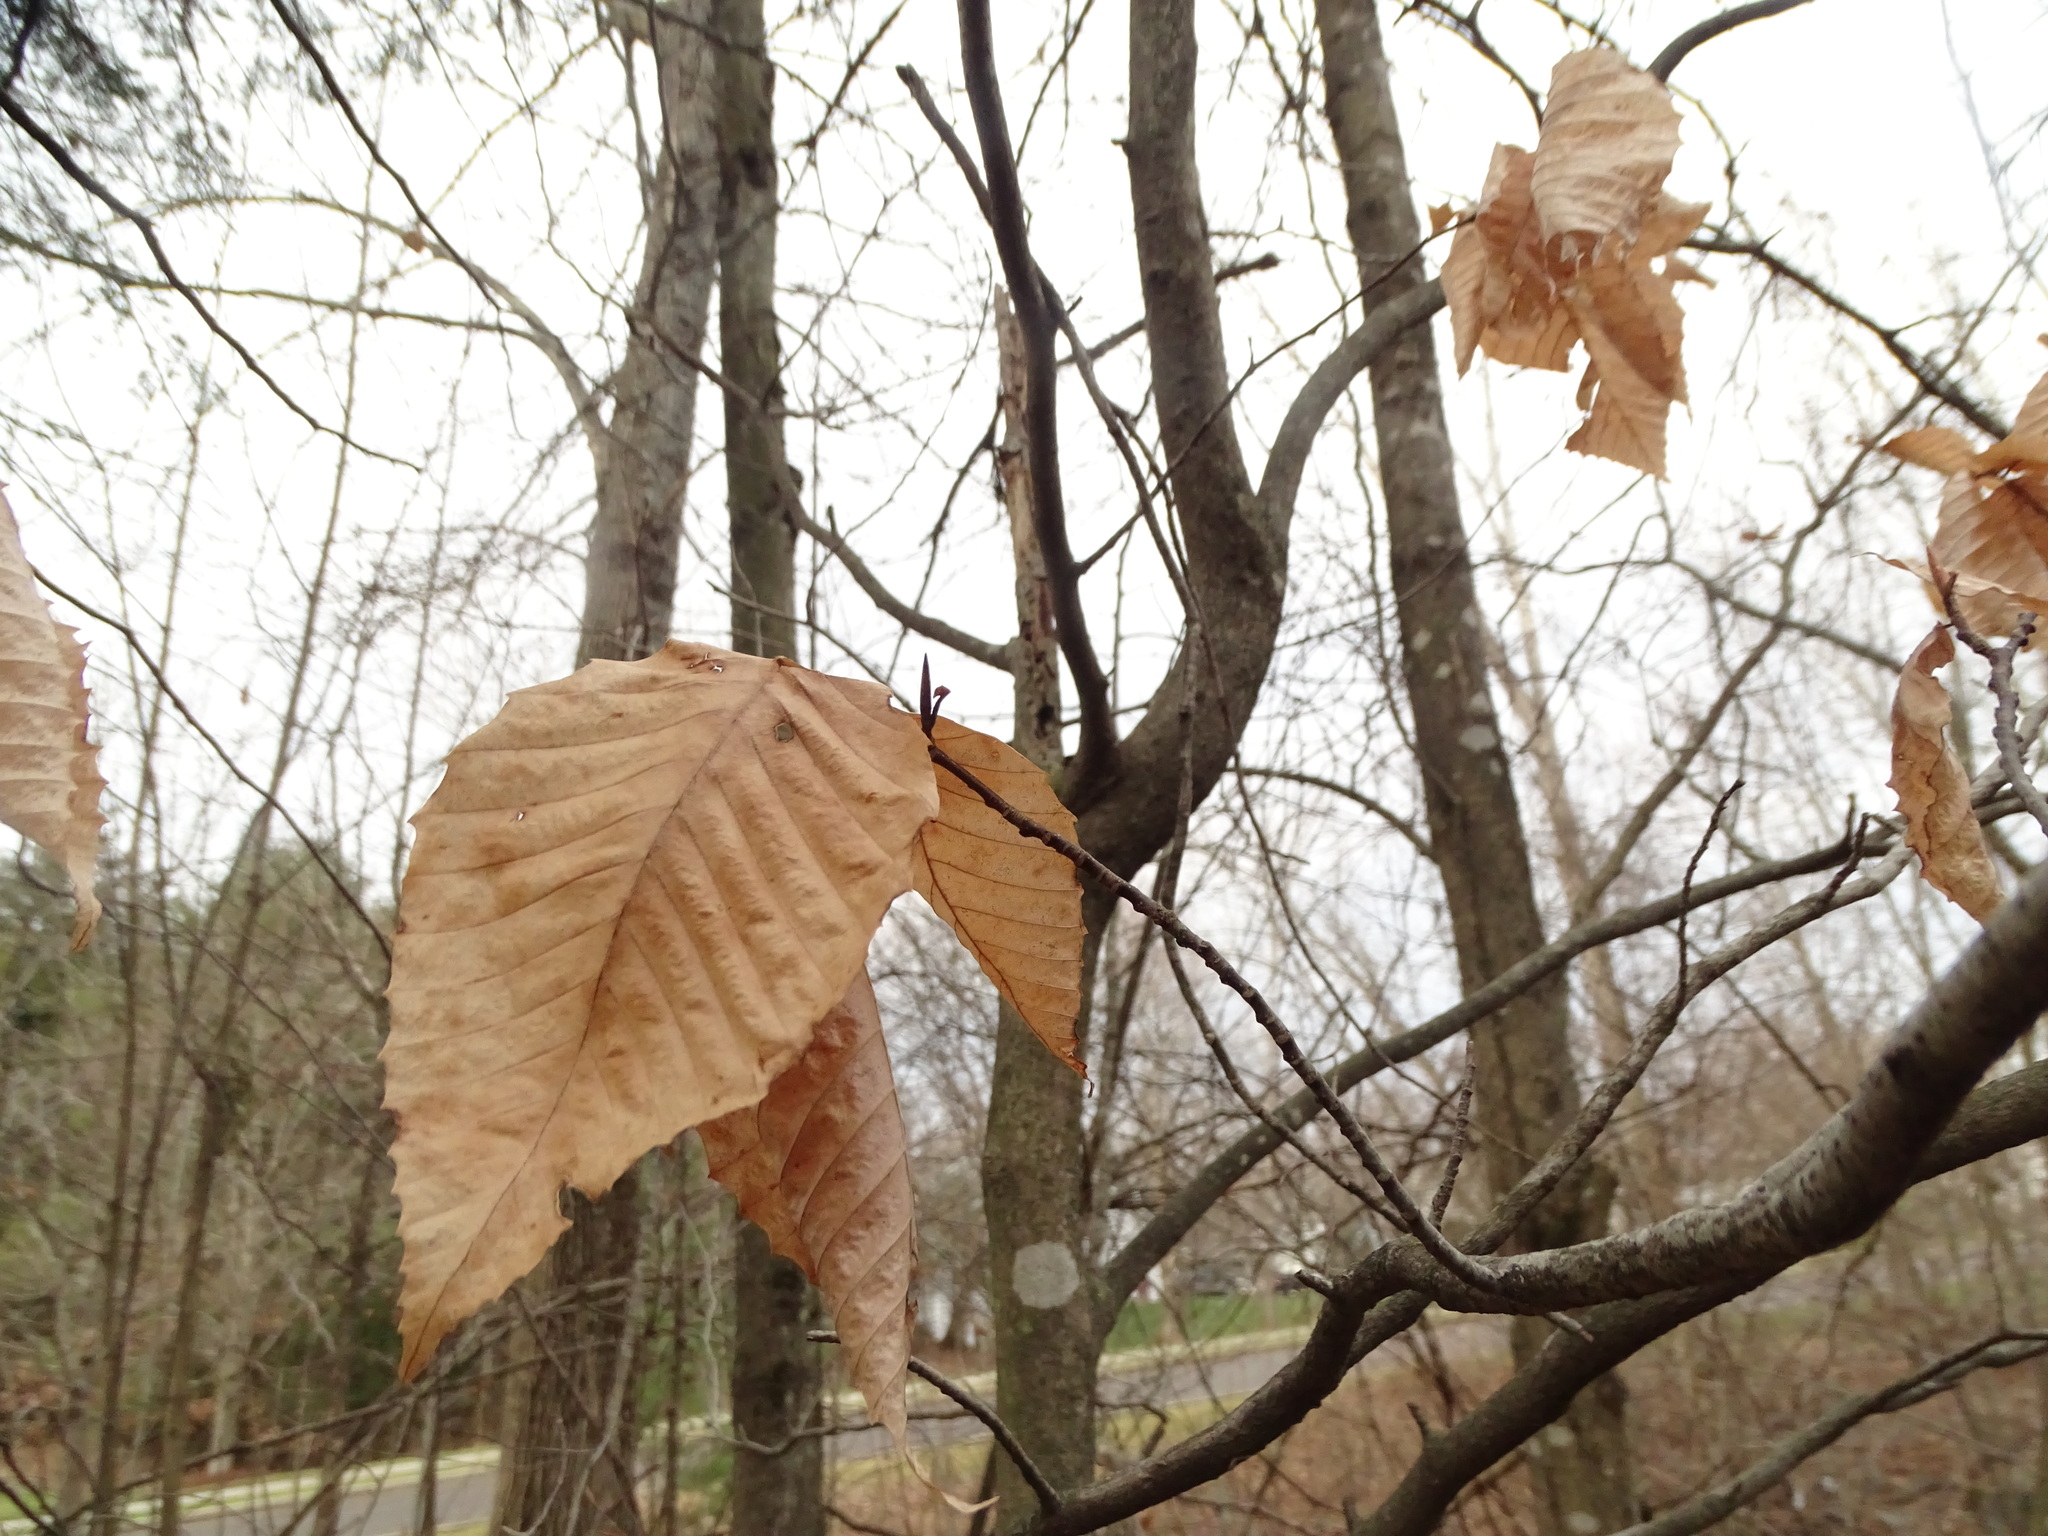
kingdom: Plantae
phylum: Tracheophyta
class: Magnoliopsida
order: Fagales
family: Fagaceae
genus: Fagus
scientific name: Fagus grandifolia
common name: American beech
